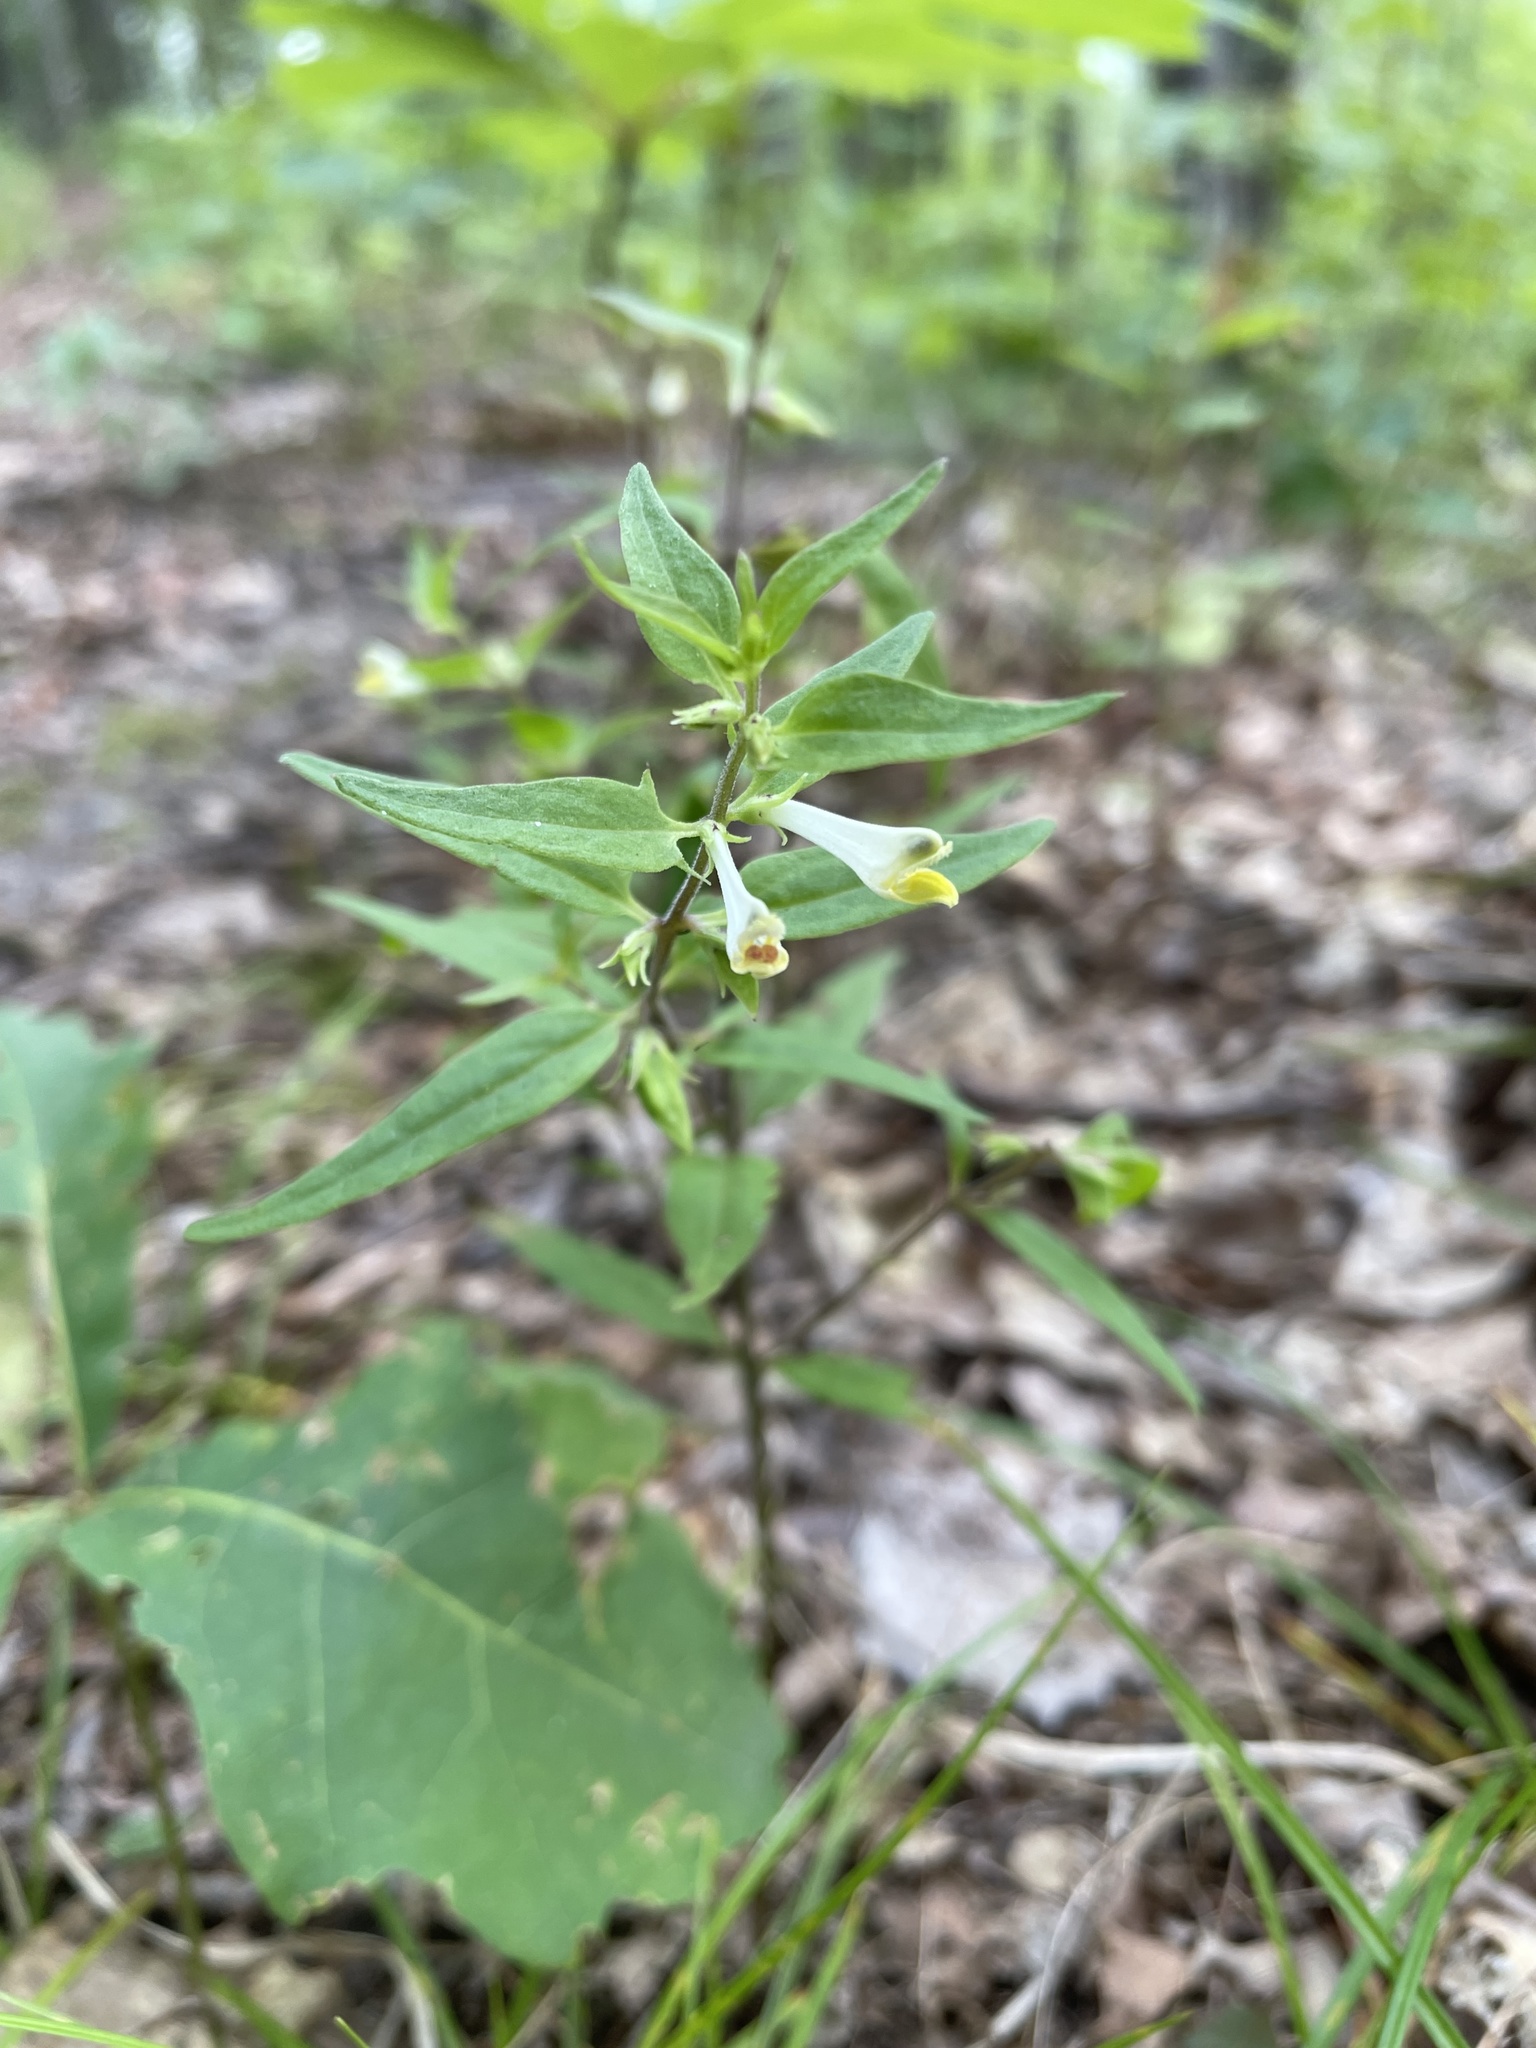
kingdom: Plantae
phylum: Tracheophyta
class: Magnoliopsida
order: Lamiales
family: Orobanchaceae
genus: Melampyrum
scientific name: Melampyrum lineare
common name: American cow-wheat
